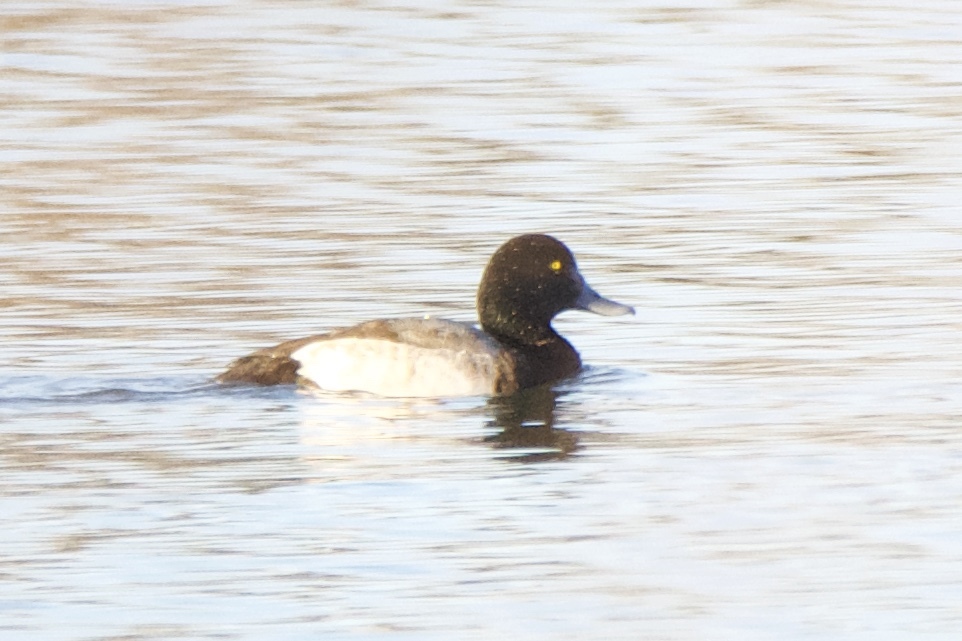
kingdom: Animalia
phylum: Chordata
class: Aves
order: Anseriformes
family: Anatidae
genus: Aythya
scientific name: Aythya marila
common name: Greater scaup
